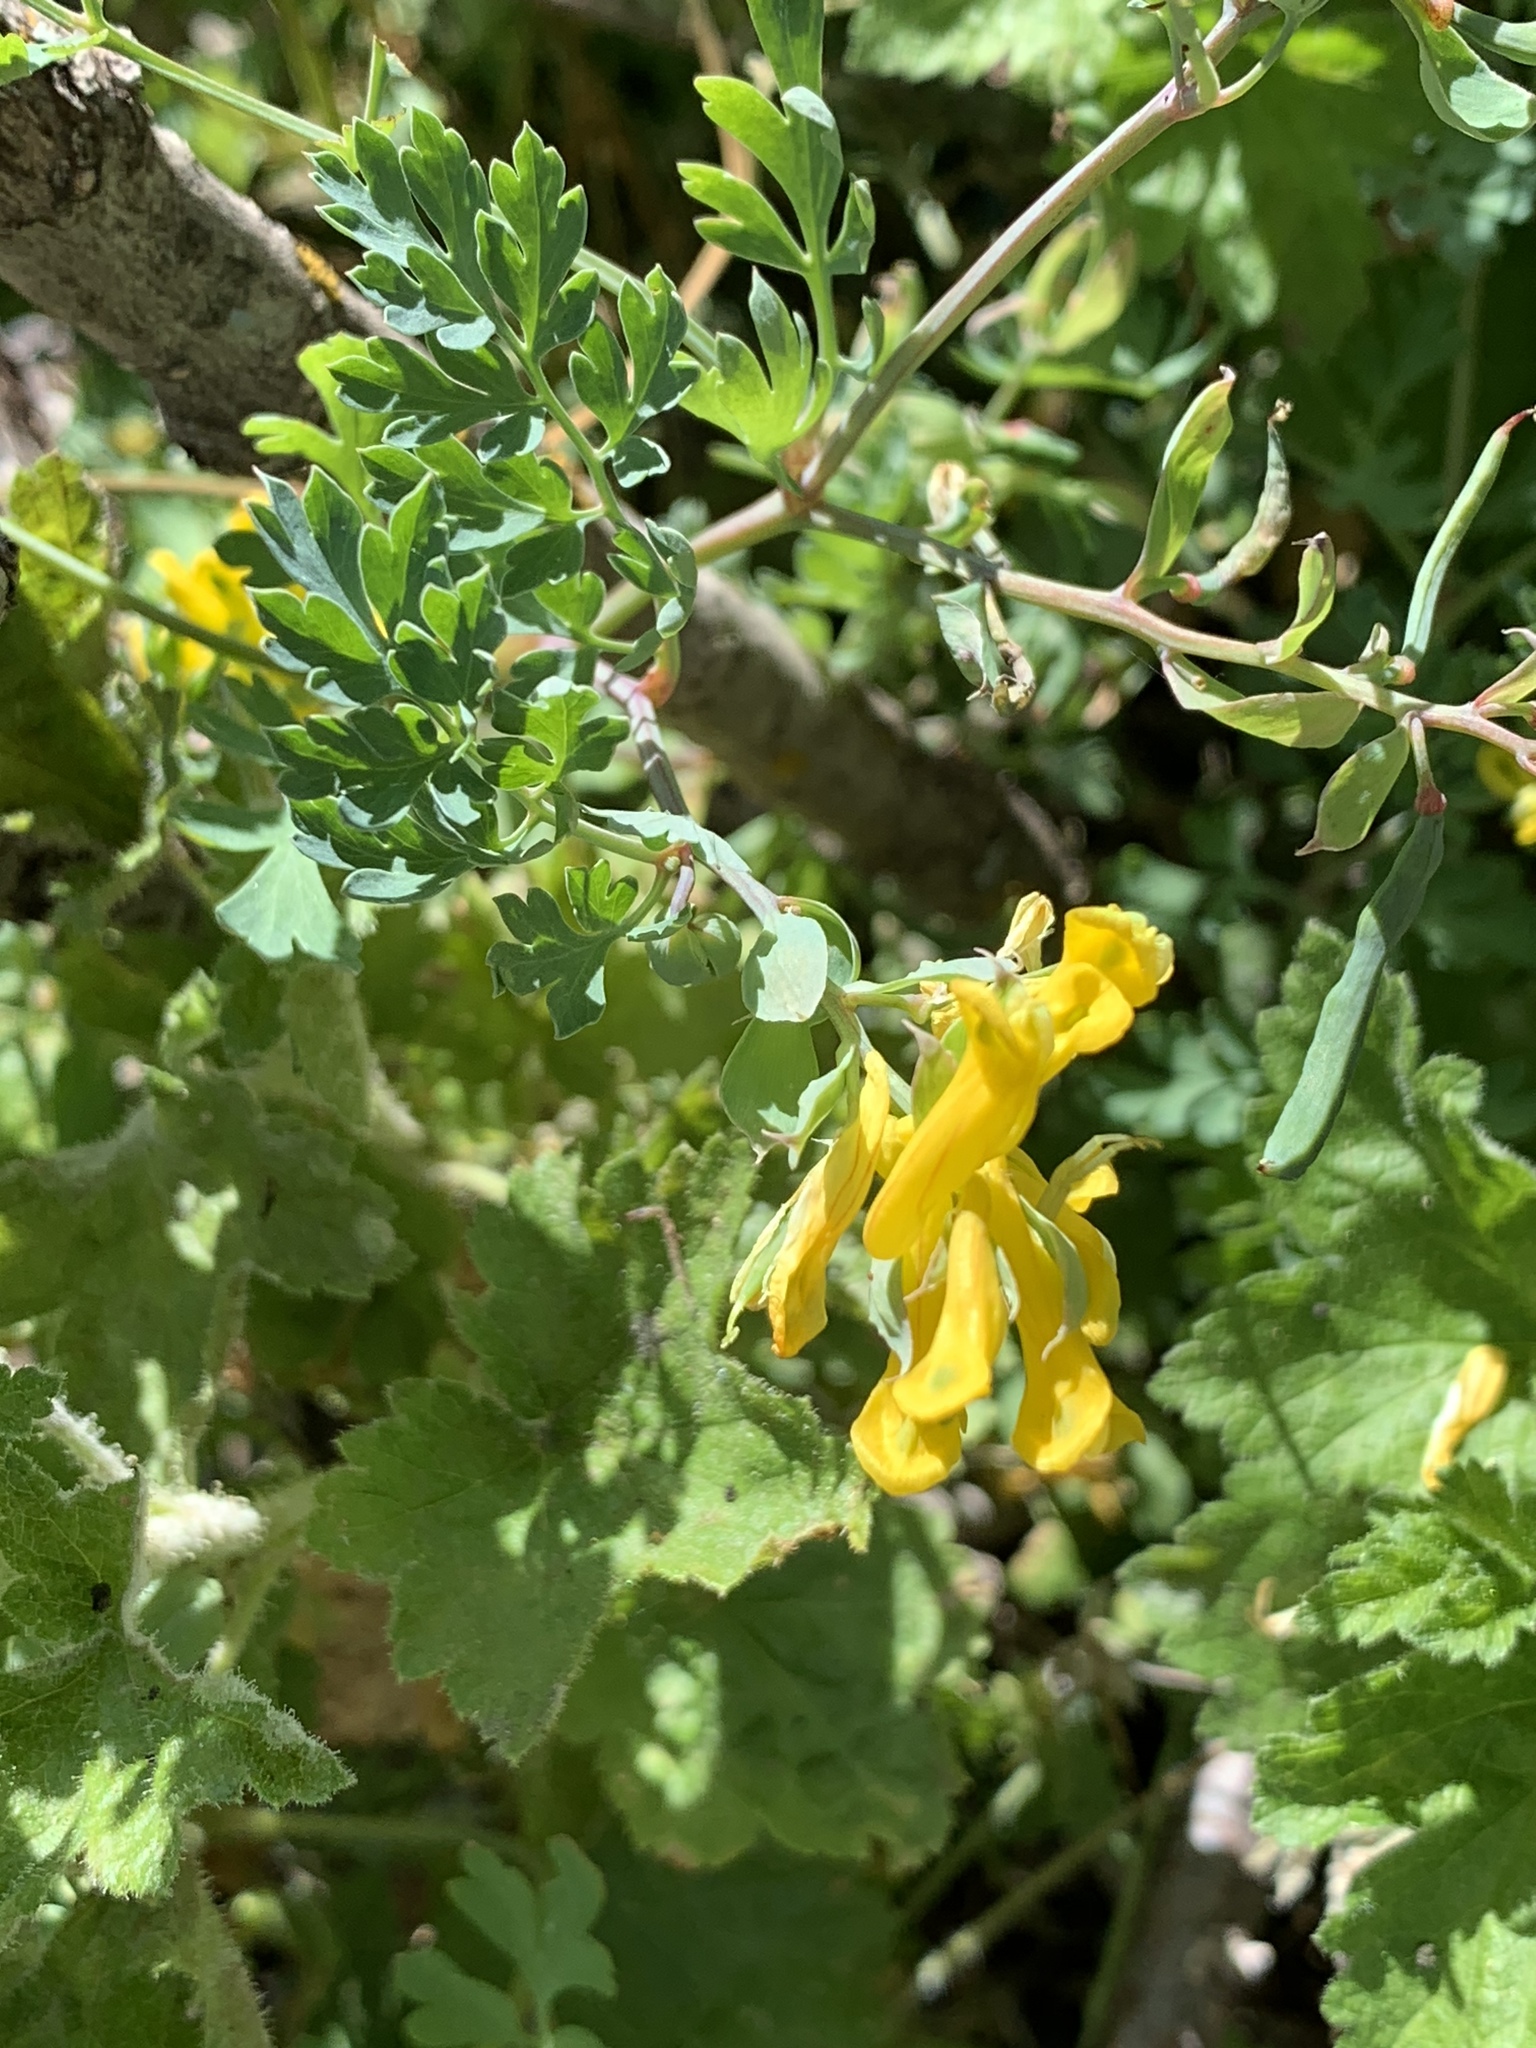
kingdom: Plantae
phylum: Tracheophyta
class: Magnoliopsida
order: Ranunculales
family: Papaveraceae
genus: Corydalis
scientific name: Corydalis aurea
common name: Golden corydalis
